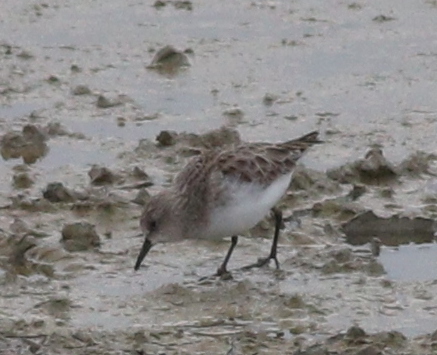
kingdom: Animalia
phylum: Chordata
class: Aves
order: Charadriiformes
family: Scolopacidae
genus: Calidris
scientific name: Calidris minuta
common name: Little stint
